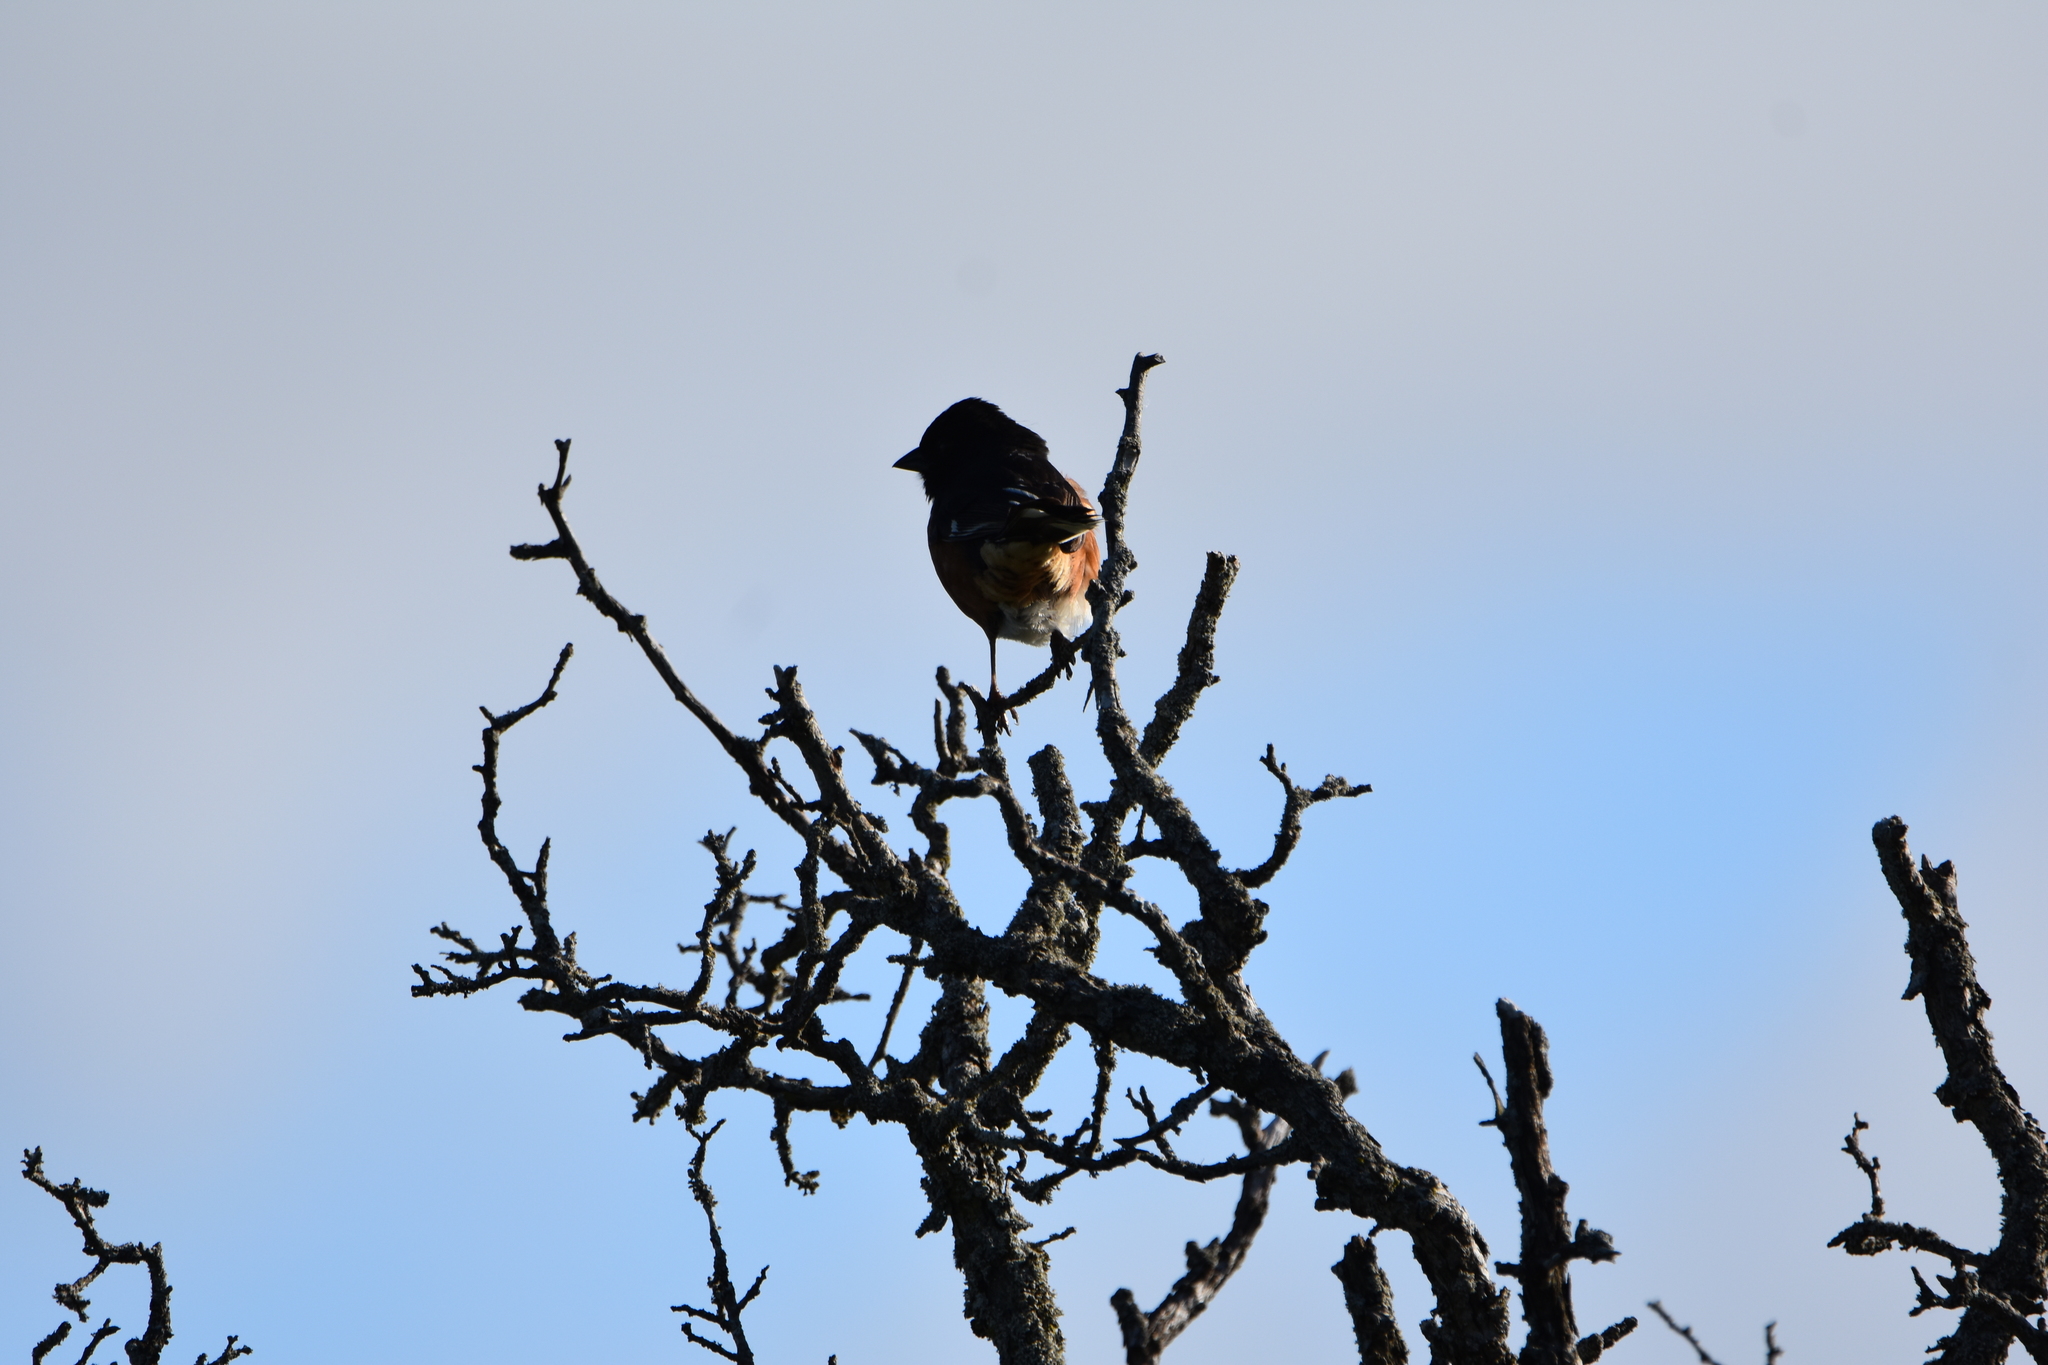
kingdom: Animalia
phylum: Chordata
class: Aves
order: Passeriformes
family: Passerellidae
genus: Pipilo
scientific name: Pipilo erythrophthalmus
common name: Eastern towhee
